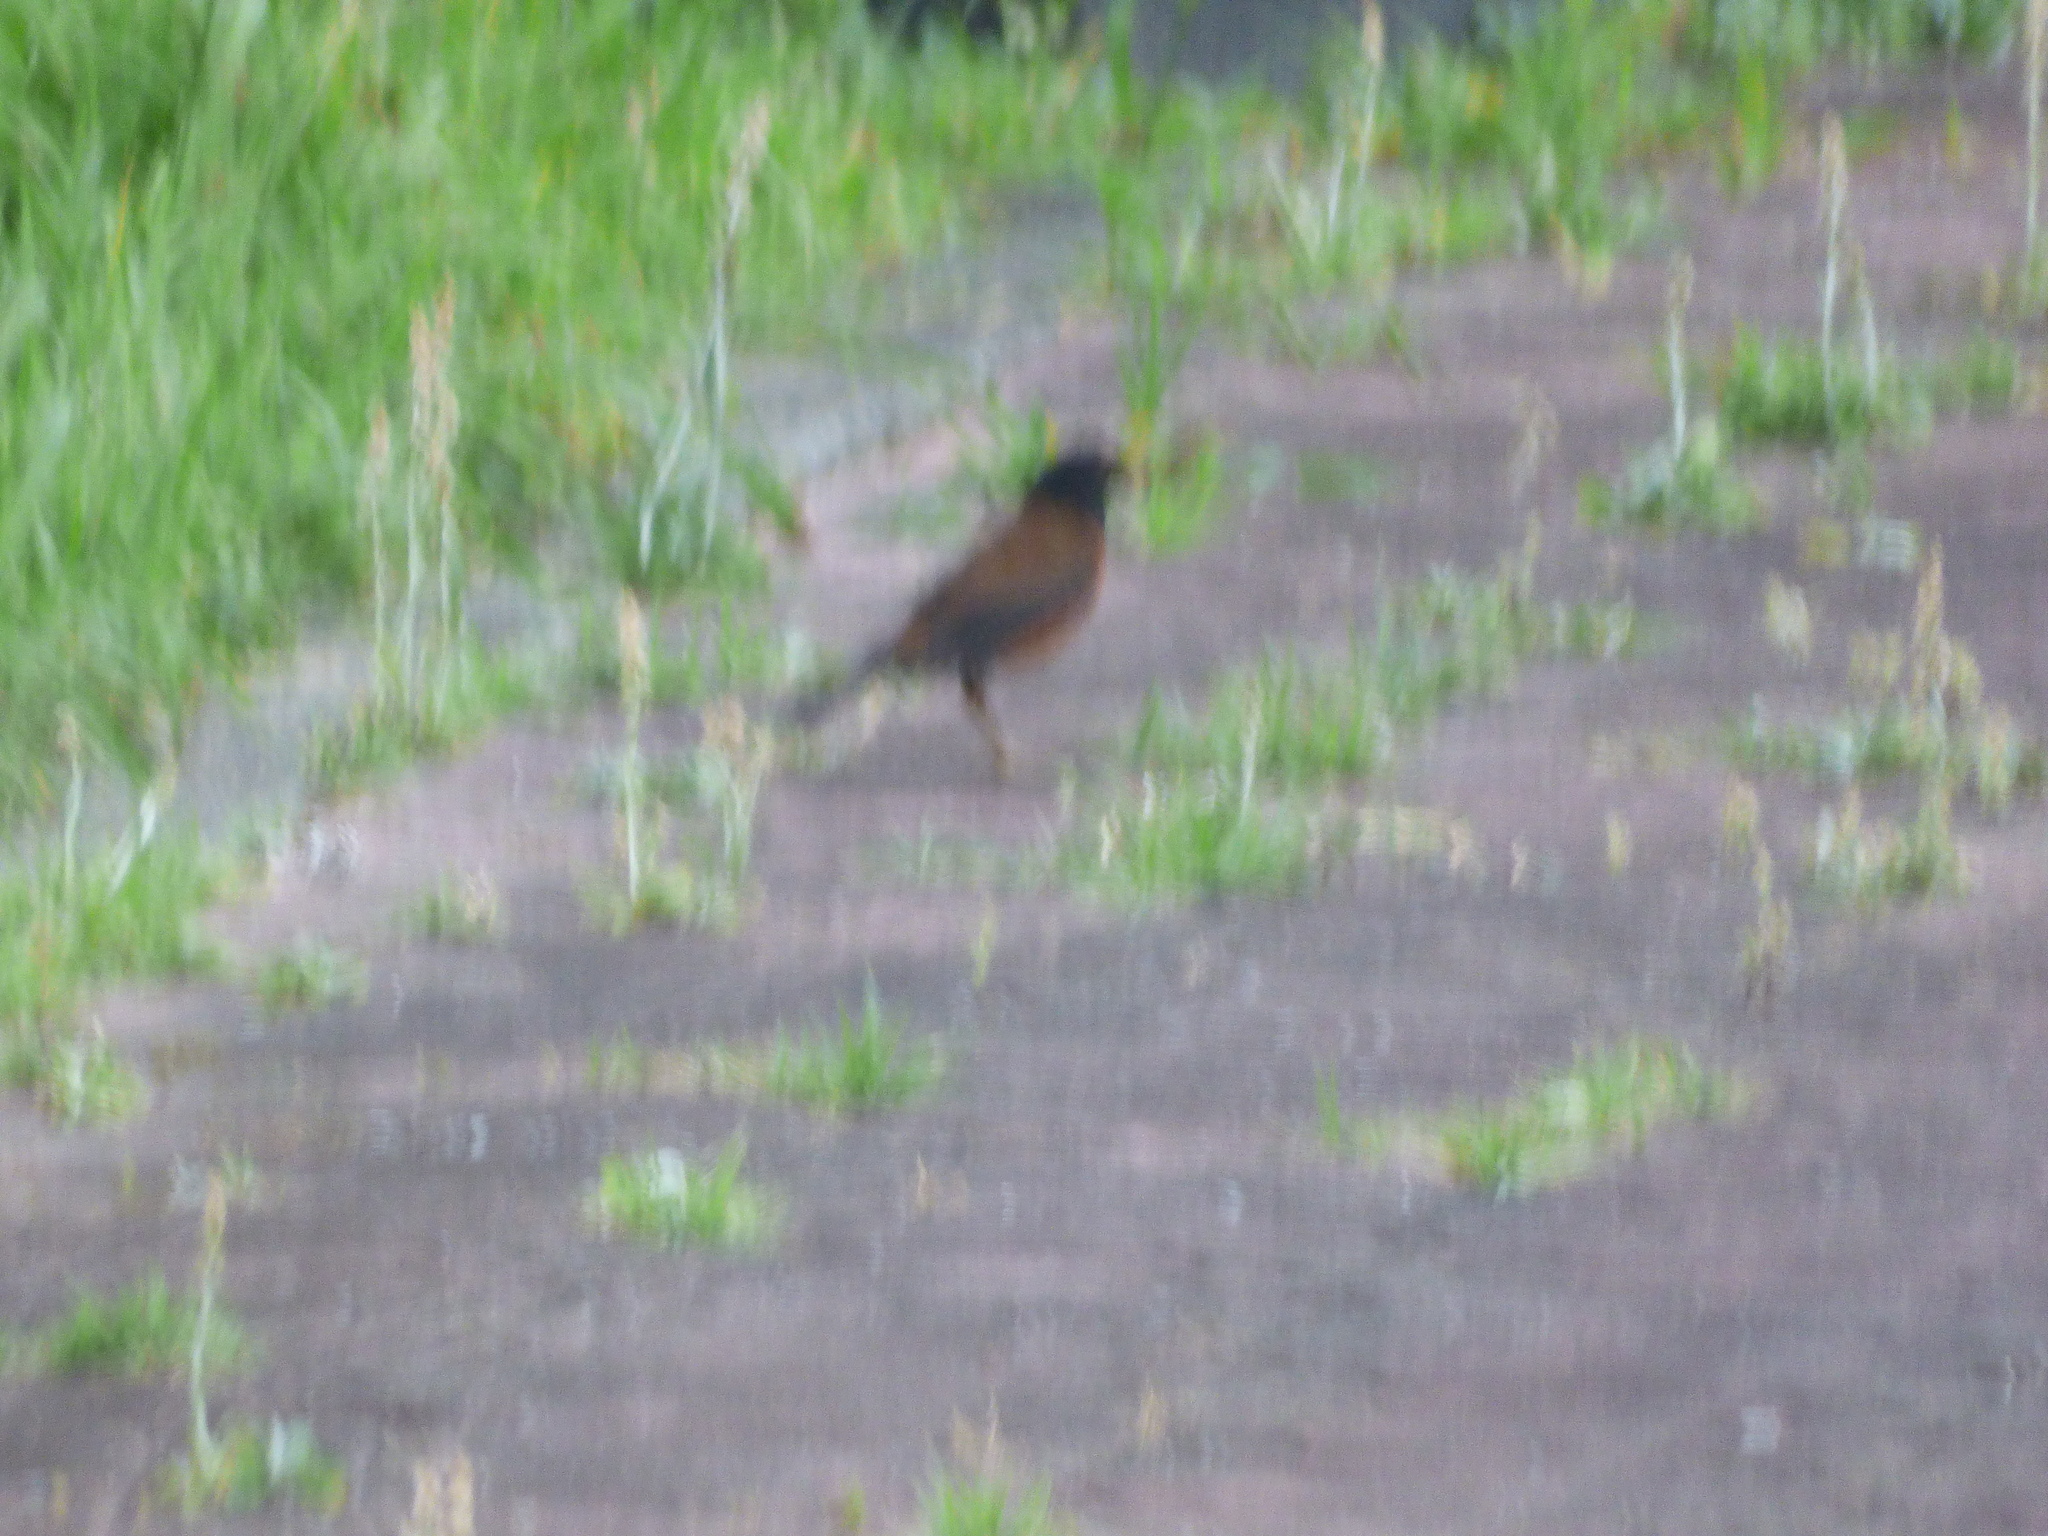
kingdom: Animalia
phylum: Chordata
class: Aves
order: Passeriformes
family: Turdidae
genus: Turdus
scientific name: Turdus celaenops
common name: Izu thrush
